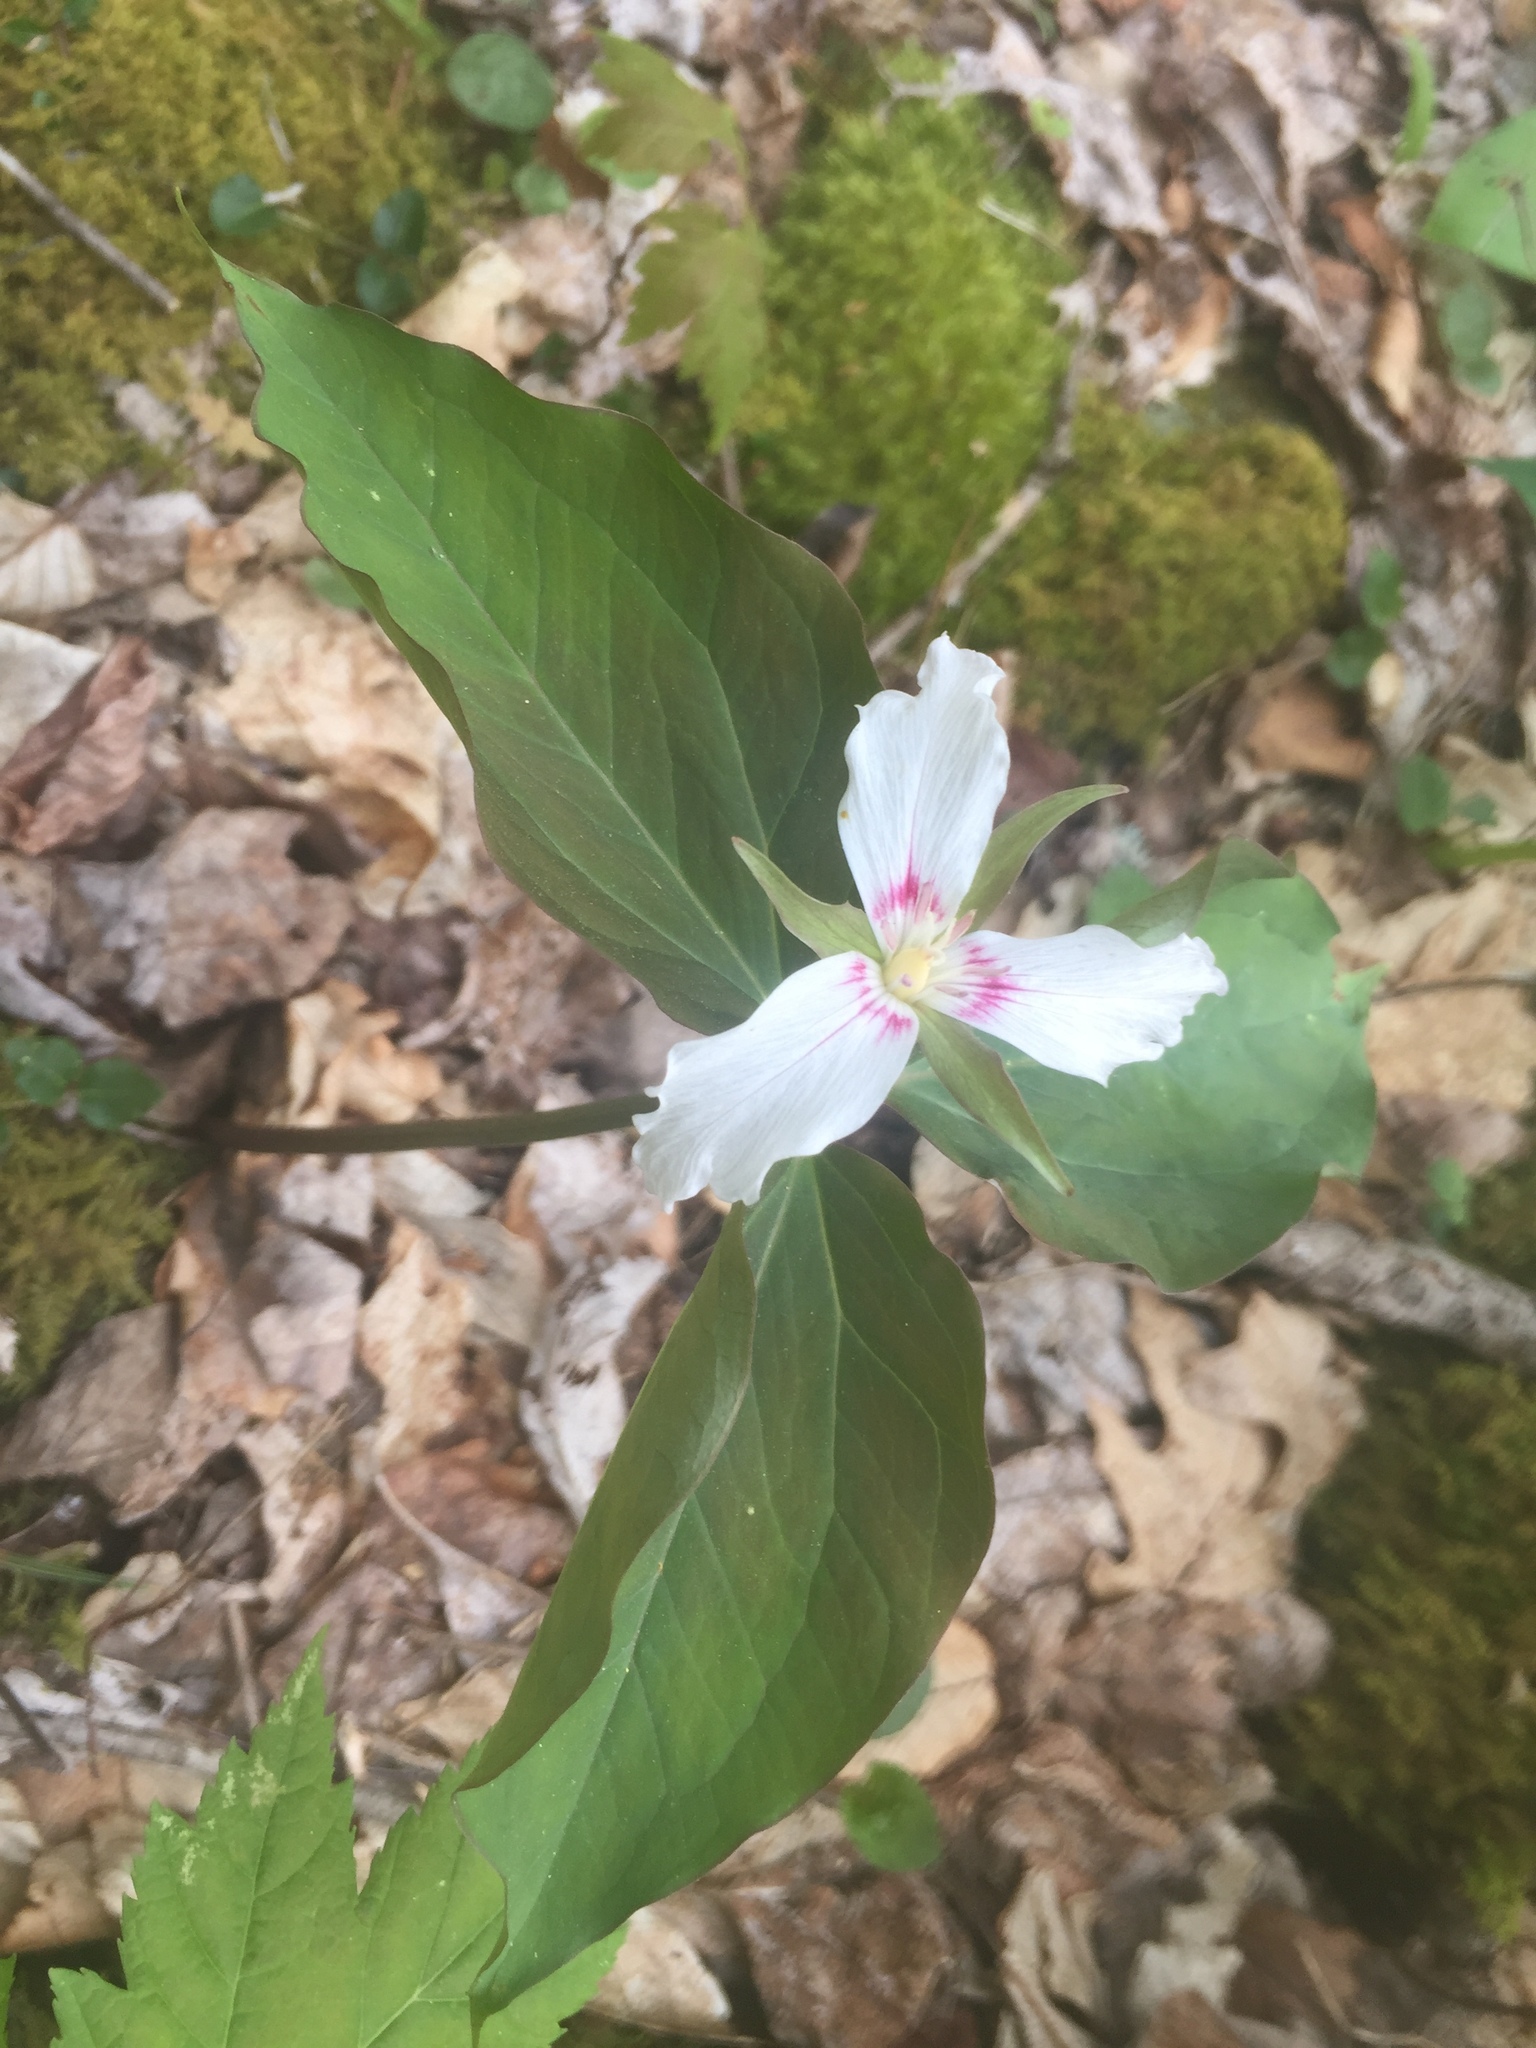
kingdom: Plantae
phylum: Tracheophyta
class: Liliopsida
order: Liliales
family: Melanthiaceae
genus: Trillium
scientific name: Trillium undulatum
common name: Paint trillium
